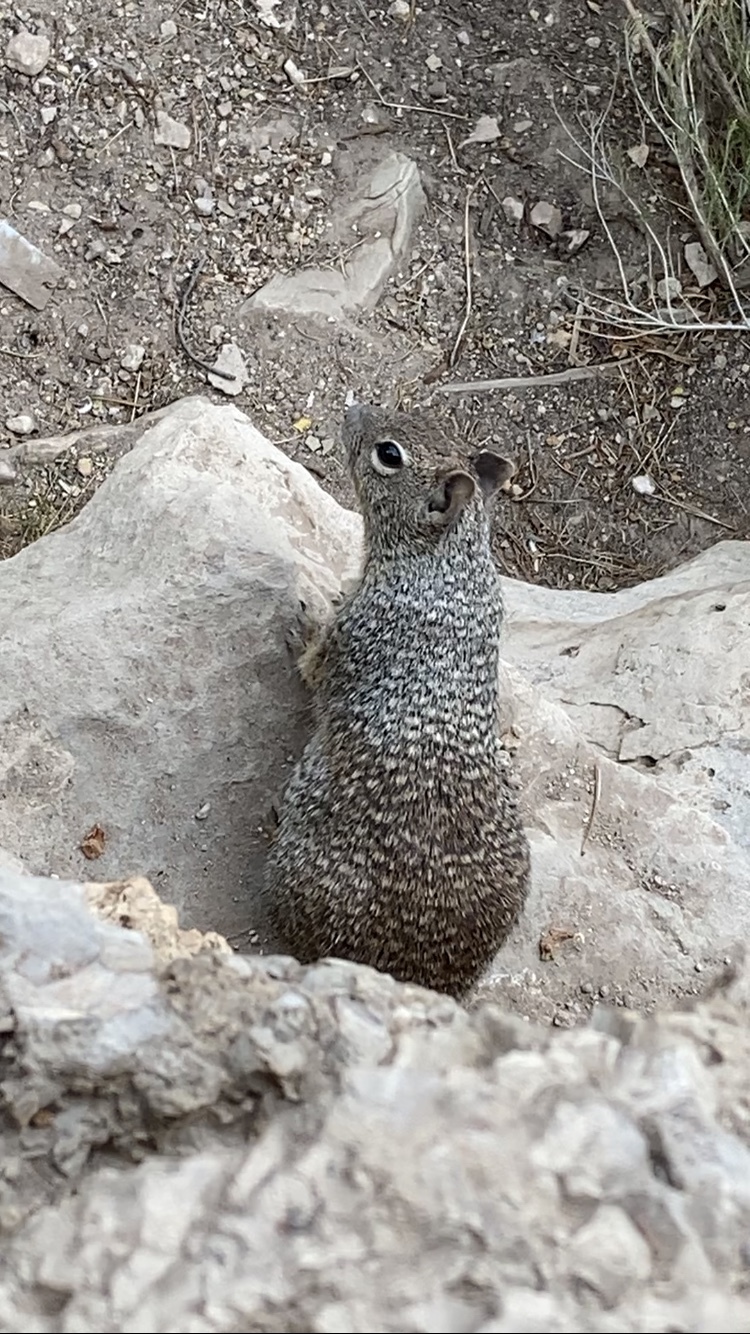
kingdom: Animalia
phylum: Chordata
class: Mammalia
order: Rodentia
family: Sciuridae
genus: Otospermophilus
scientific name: Otospermophilus variegatus
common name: Rock squirrel
